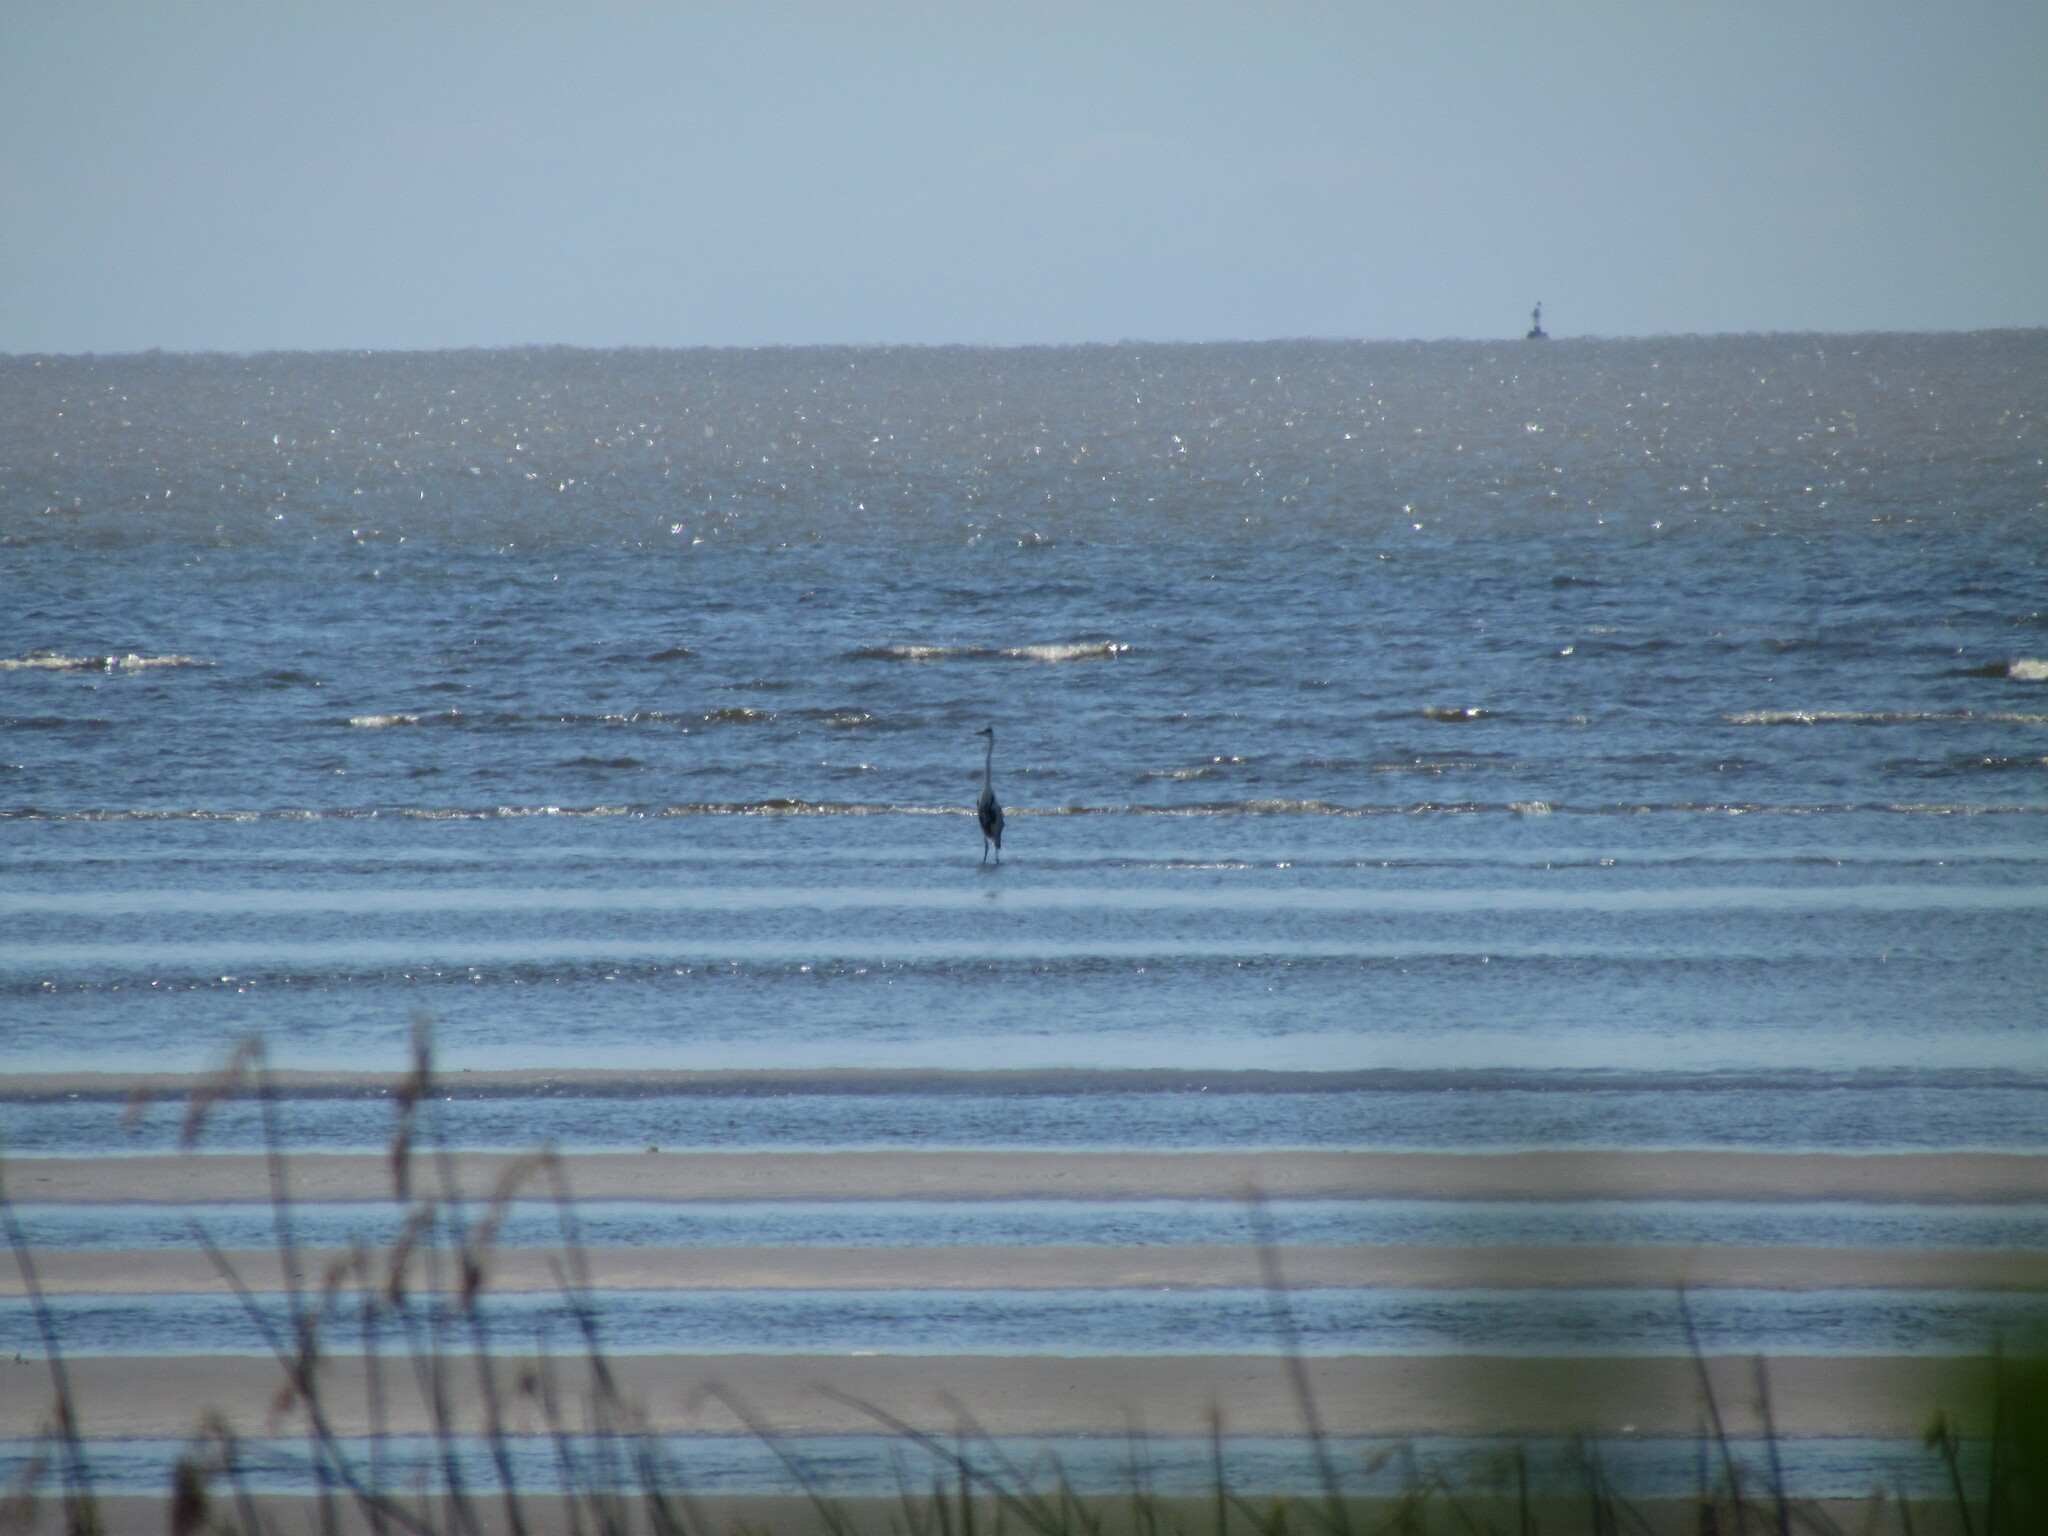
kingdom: Animalia
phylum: Chordata
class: Aves
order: Pelecaniformes
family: Ardeidae
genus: Ardea
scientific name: Ardea cocoi
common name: Cocoi heron
